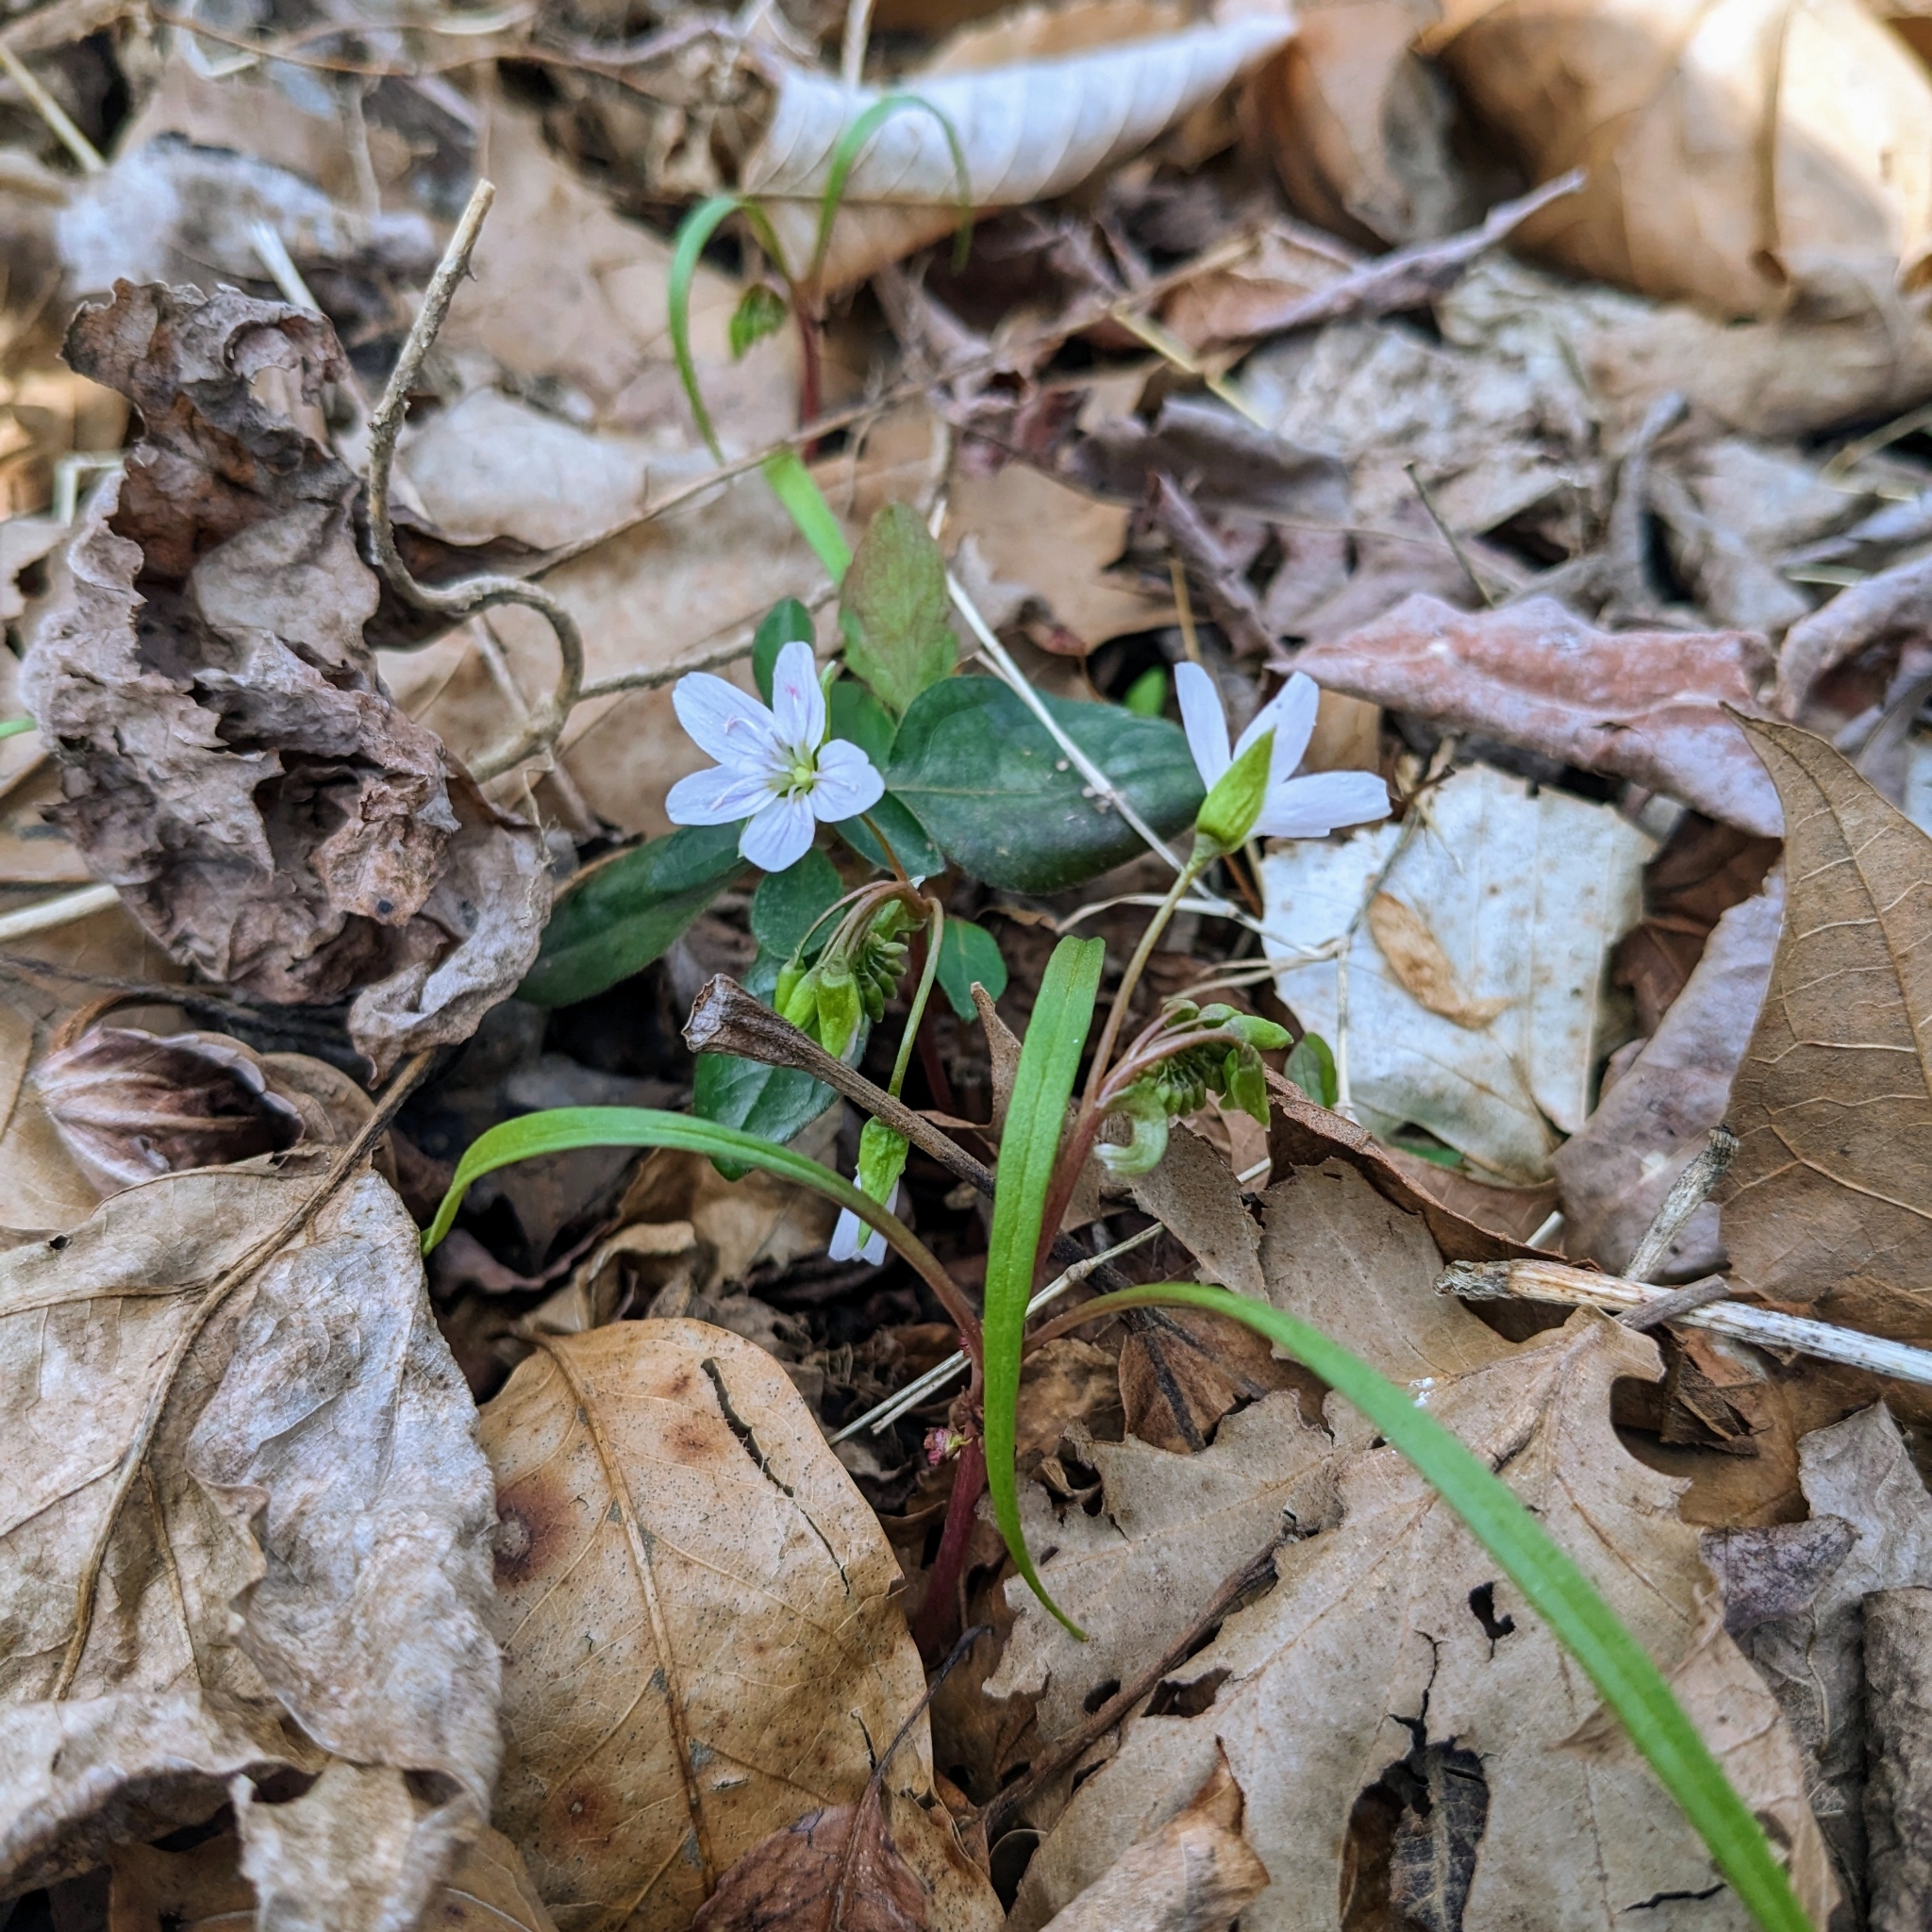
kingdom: Plantae
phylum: Tracheophyta
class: Magnoliopsida
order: Caryophyllales
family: Montiaceae
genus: Claytonia
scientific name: Claytonia virginica
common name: Virginia springbeauty
